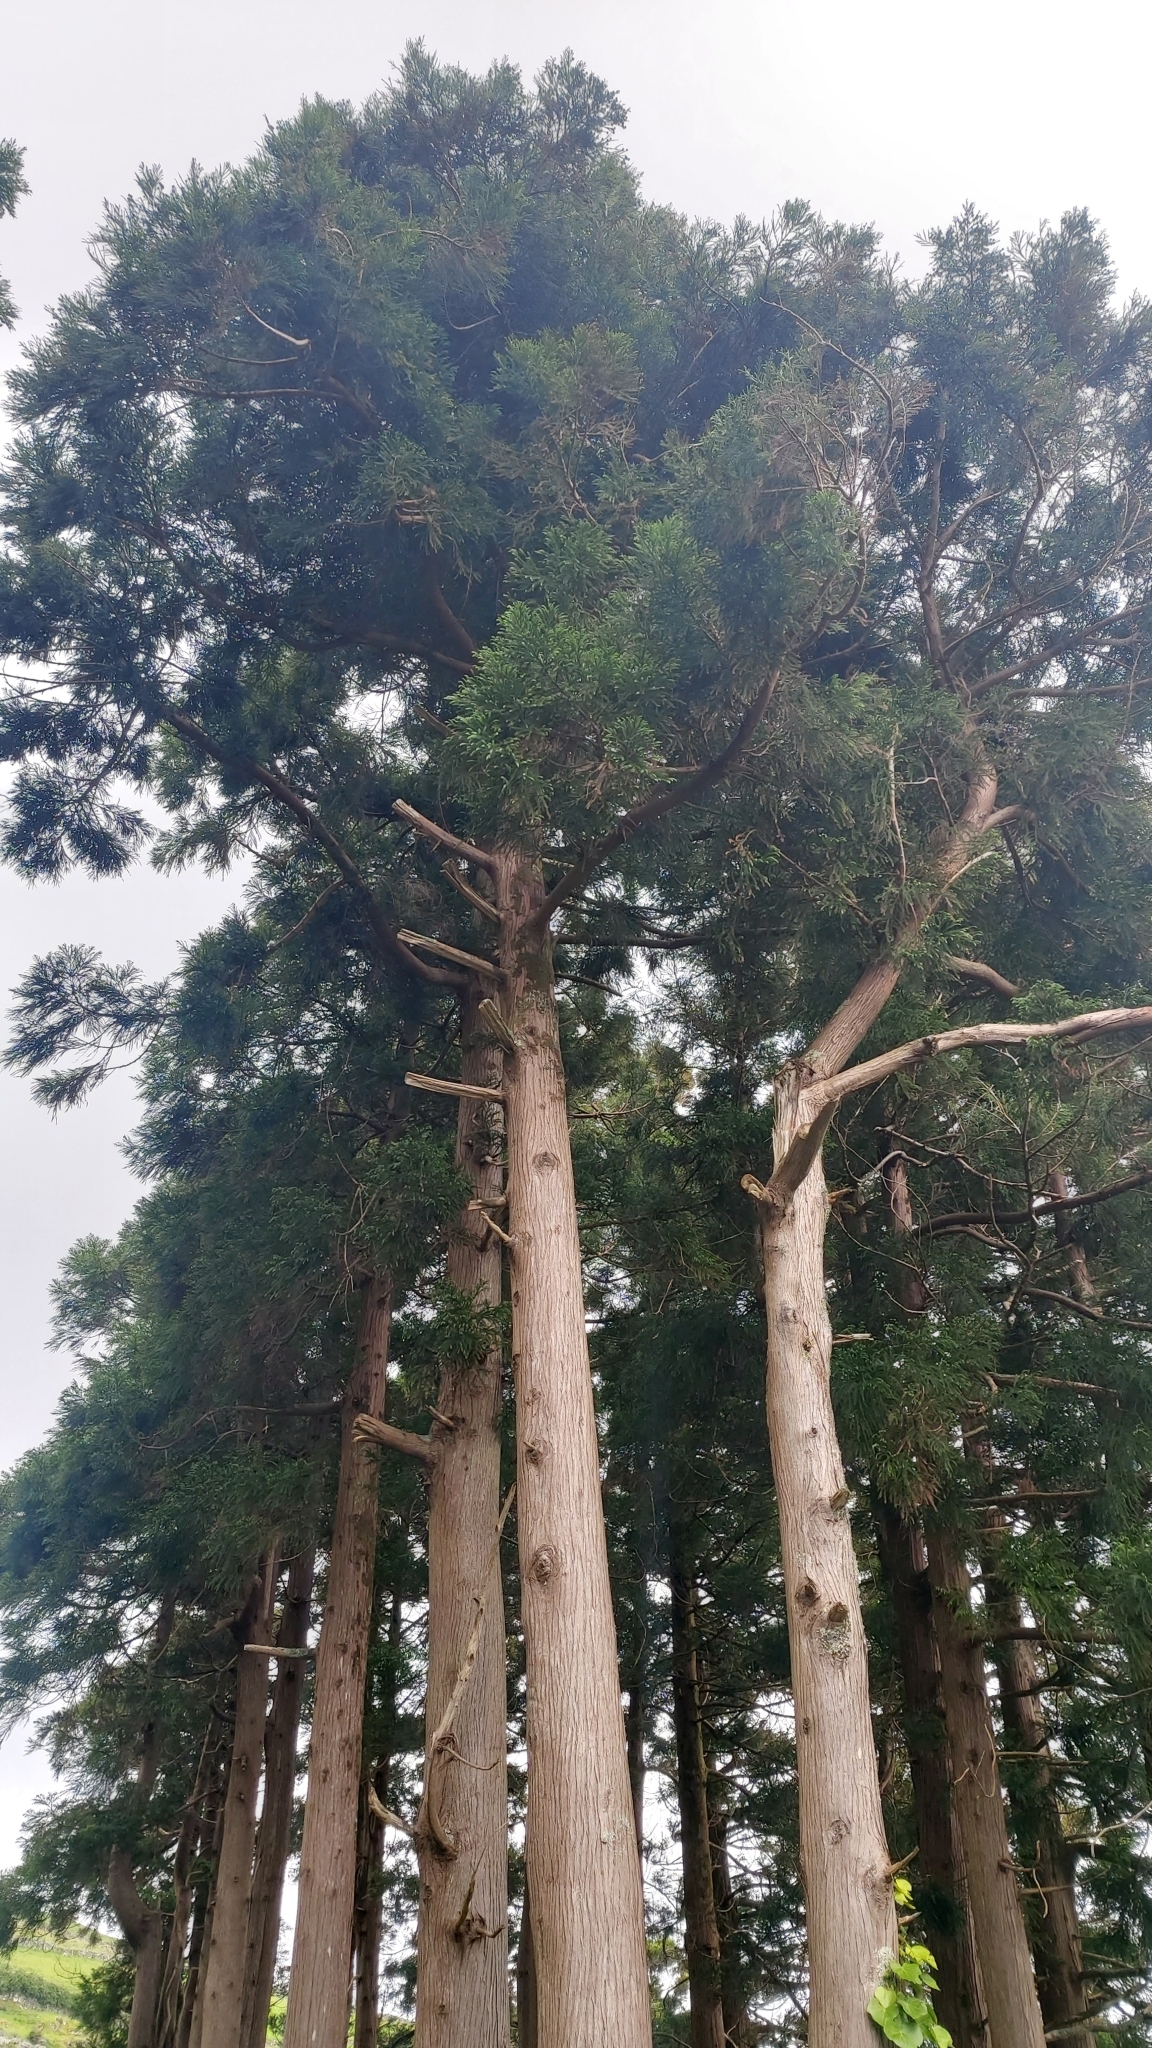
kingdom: Plantae
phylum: Tracheophyta
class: Pinopsida
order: Pinales
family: Cupressaceae
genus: Cryptomeria
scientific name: Cryptomeria japonica
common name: Japanese cedar
